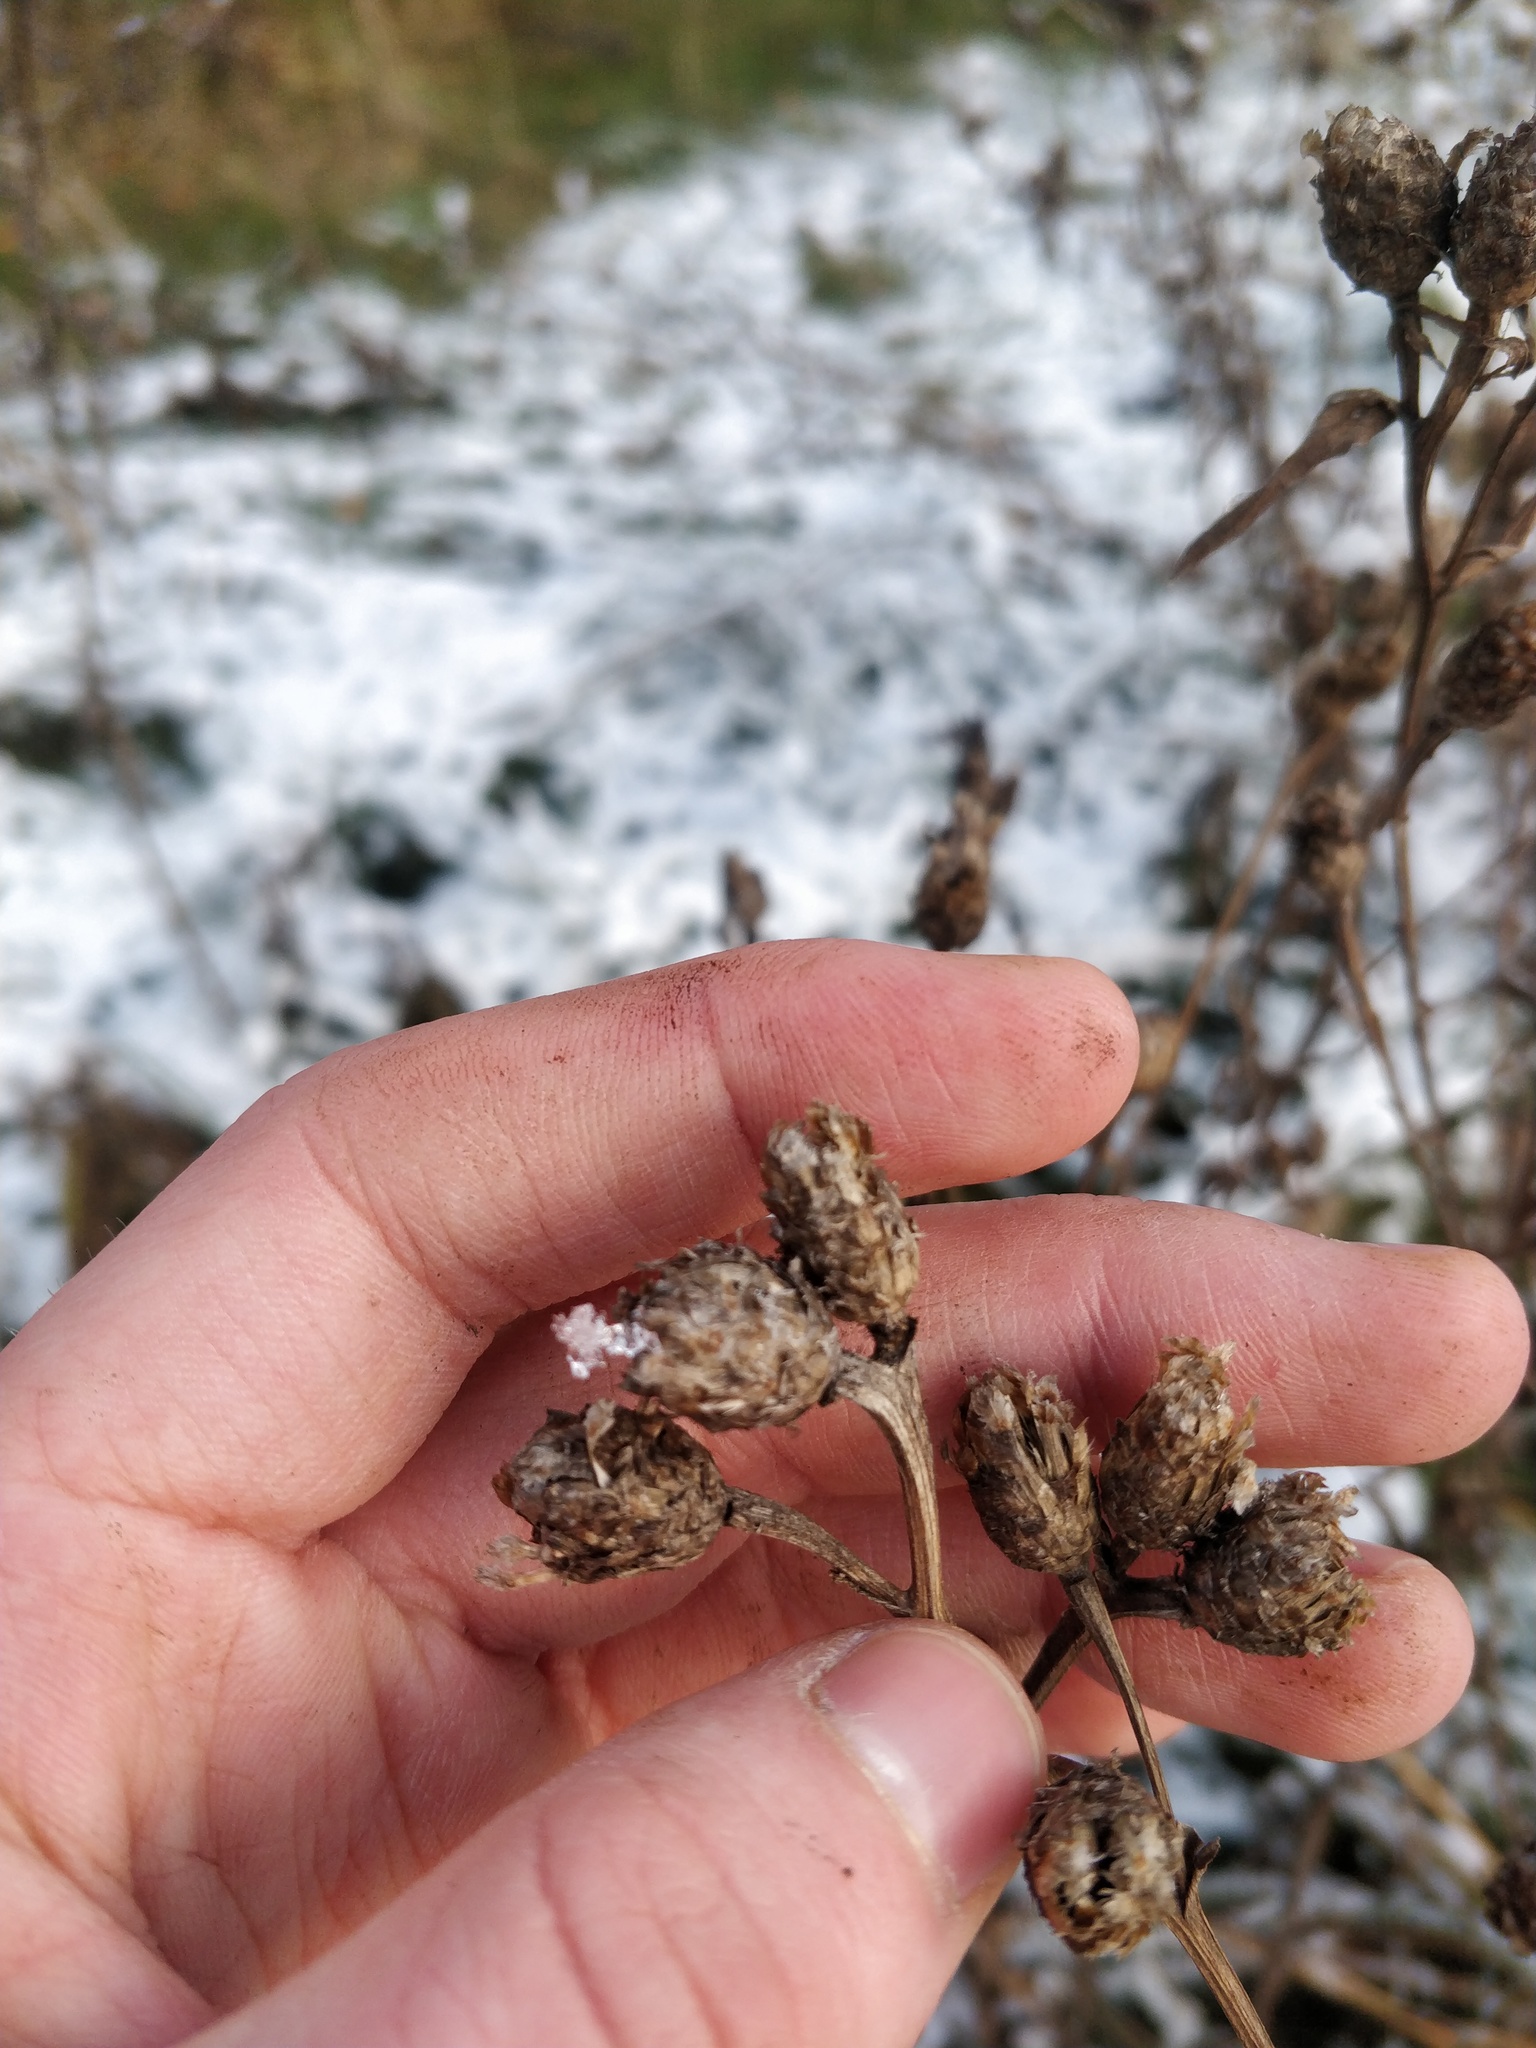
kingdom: Plantae
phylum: Tracheophyta
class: Magnoliopsida
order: Asterales
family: Asteraceae
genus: Centaurea
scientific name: Centaurea jacea
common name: Brown knapweed
